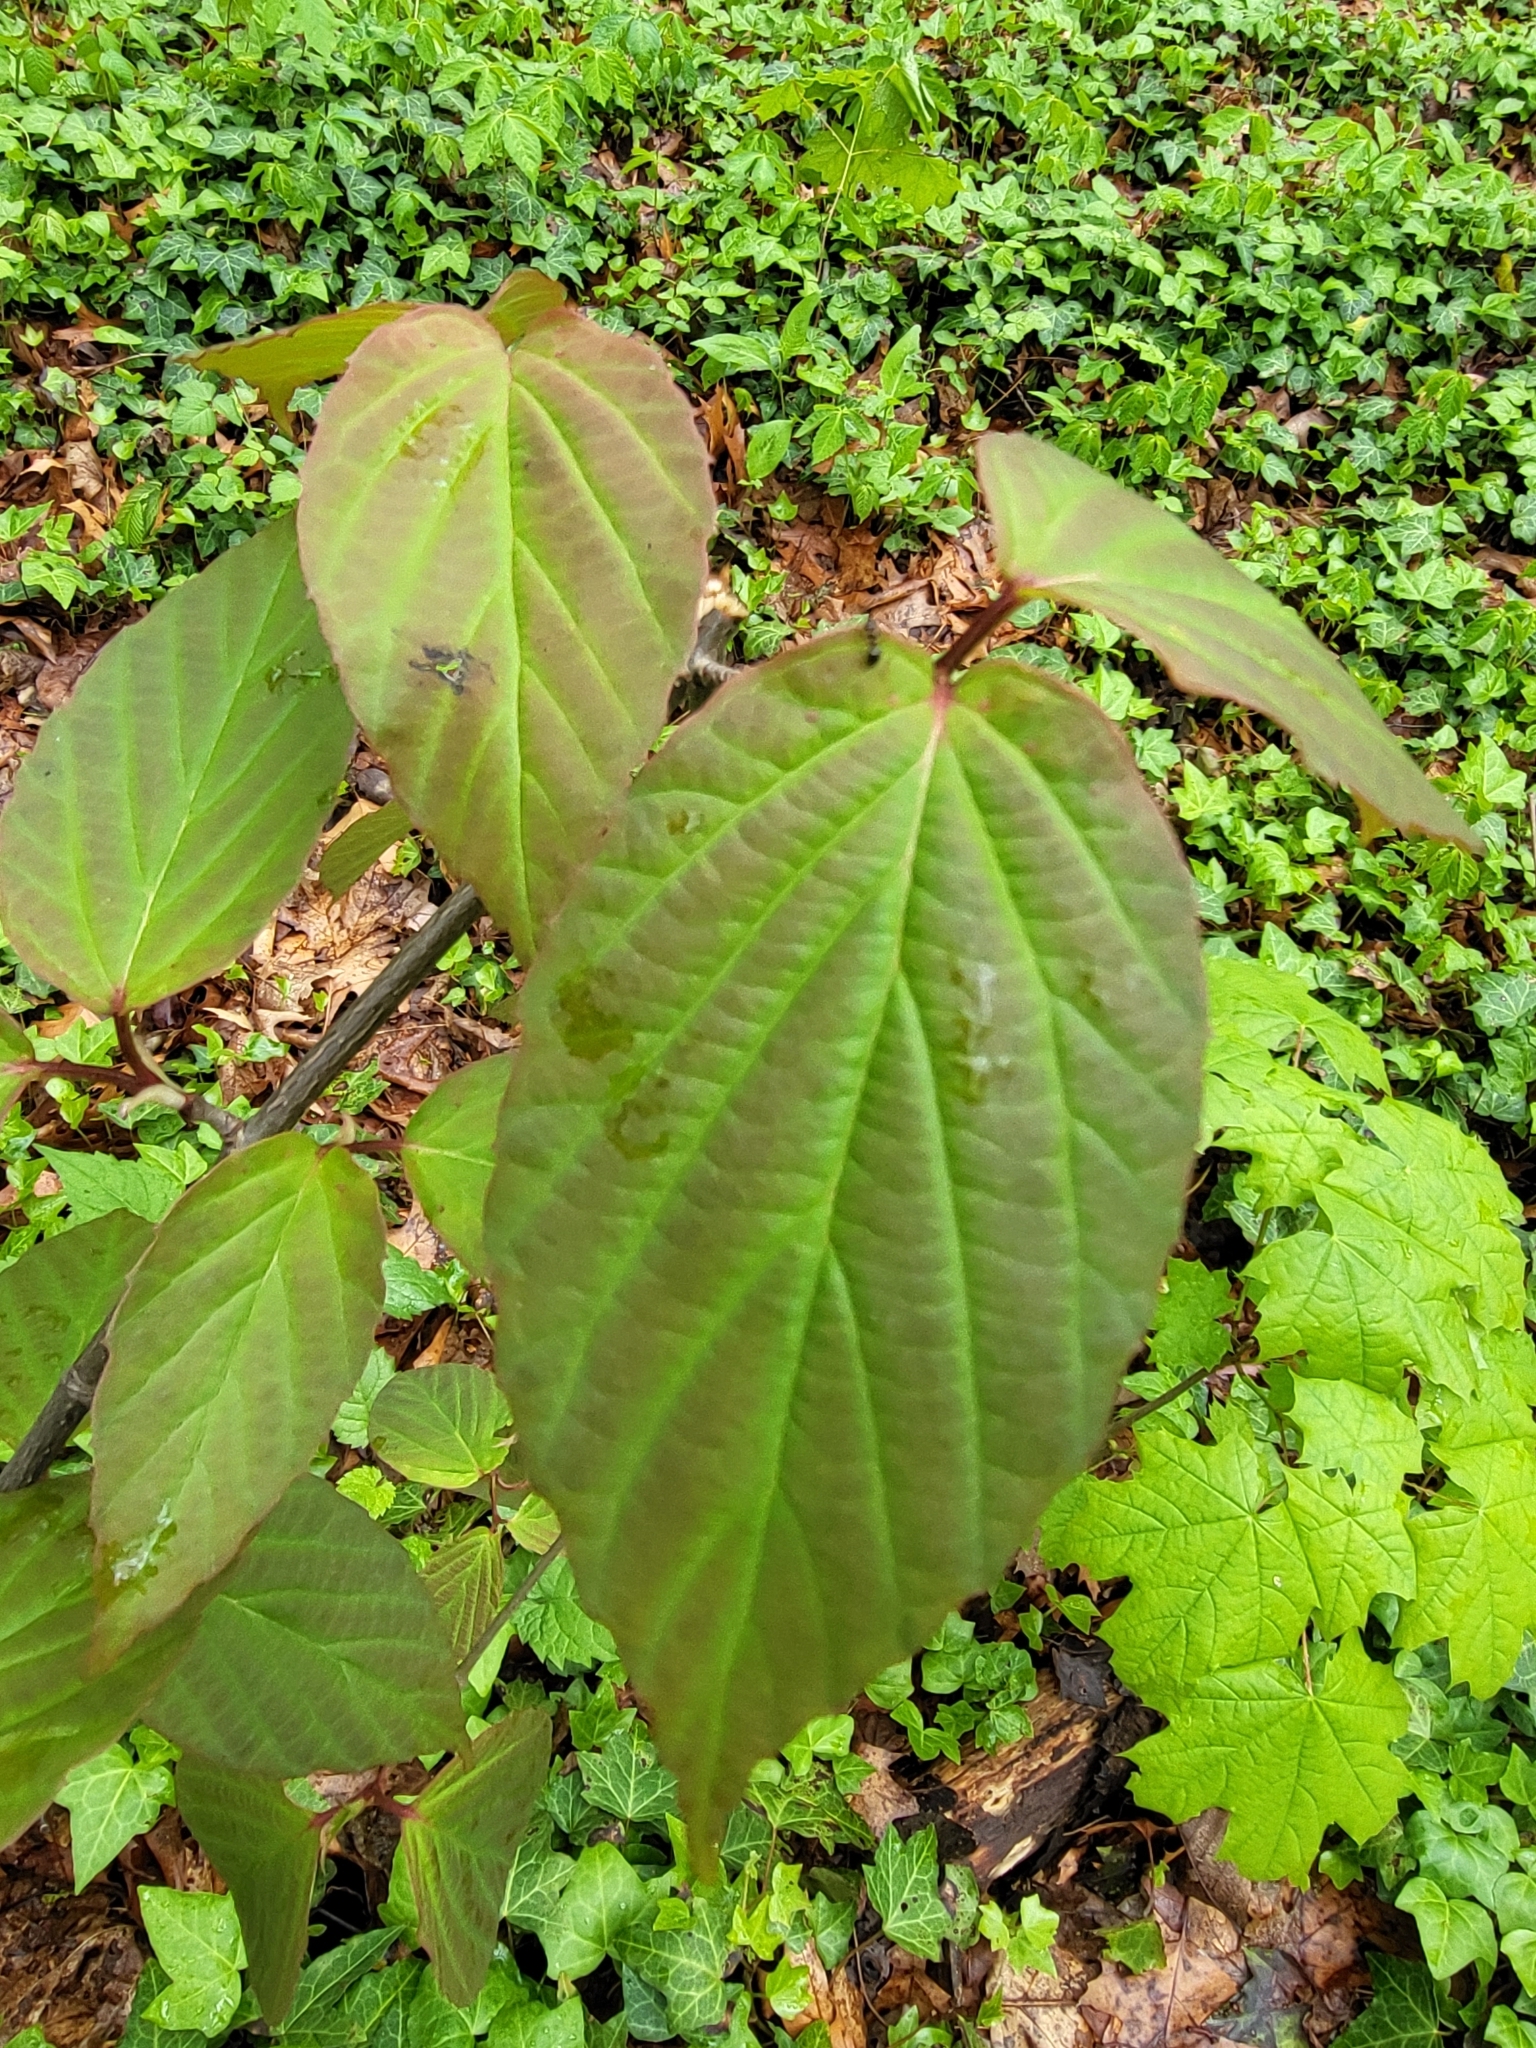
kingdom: Plantae
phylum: Tracheophyta
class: Magnoliopsida
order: Dipsacales
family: Viburnaceae
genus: Viburnum
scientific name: Viburnum setigerum
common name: Tea viburnum
